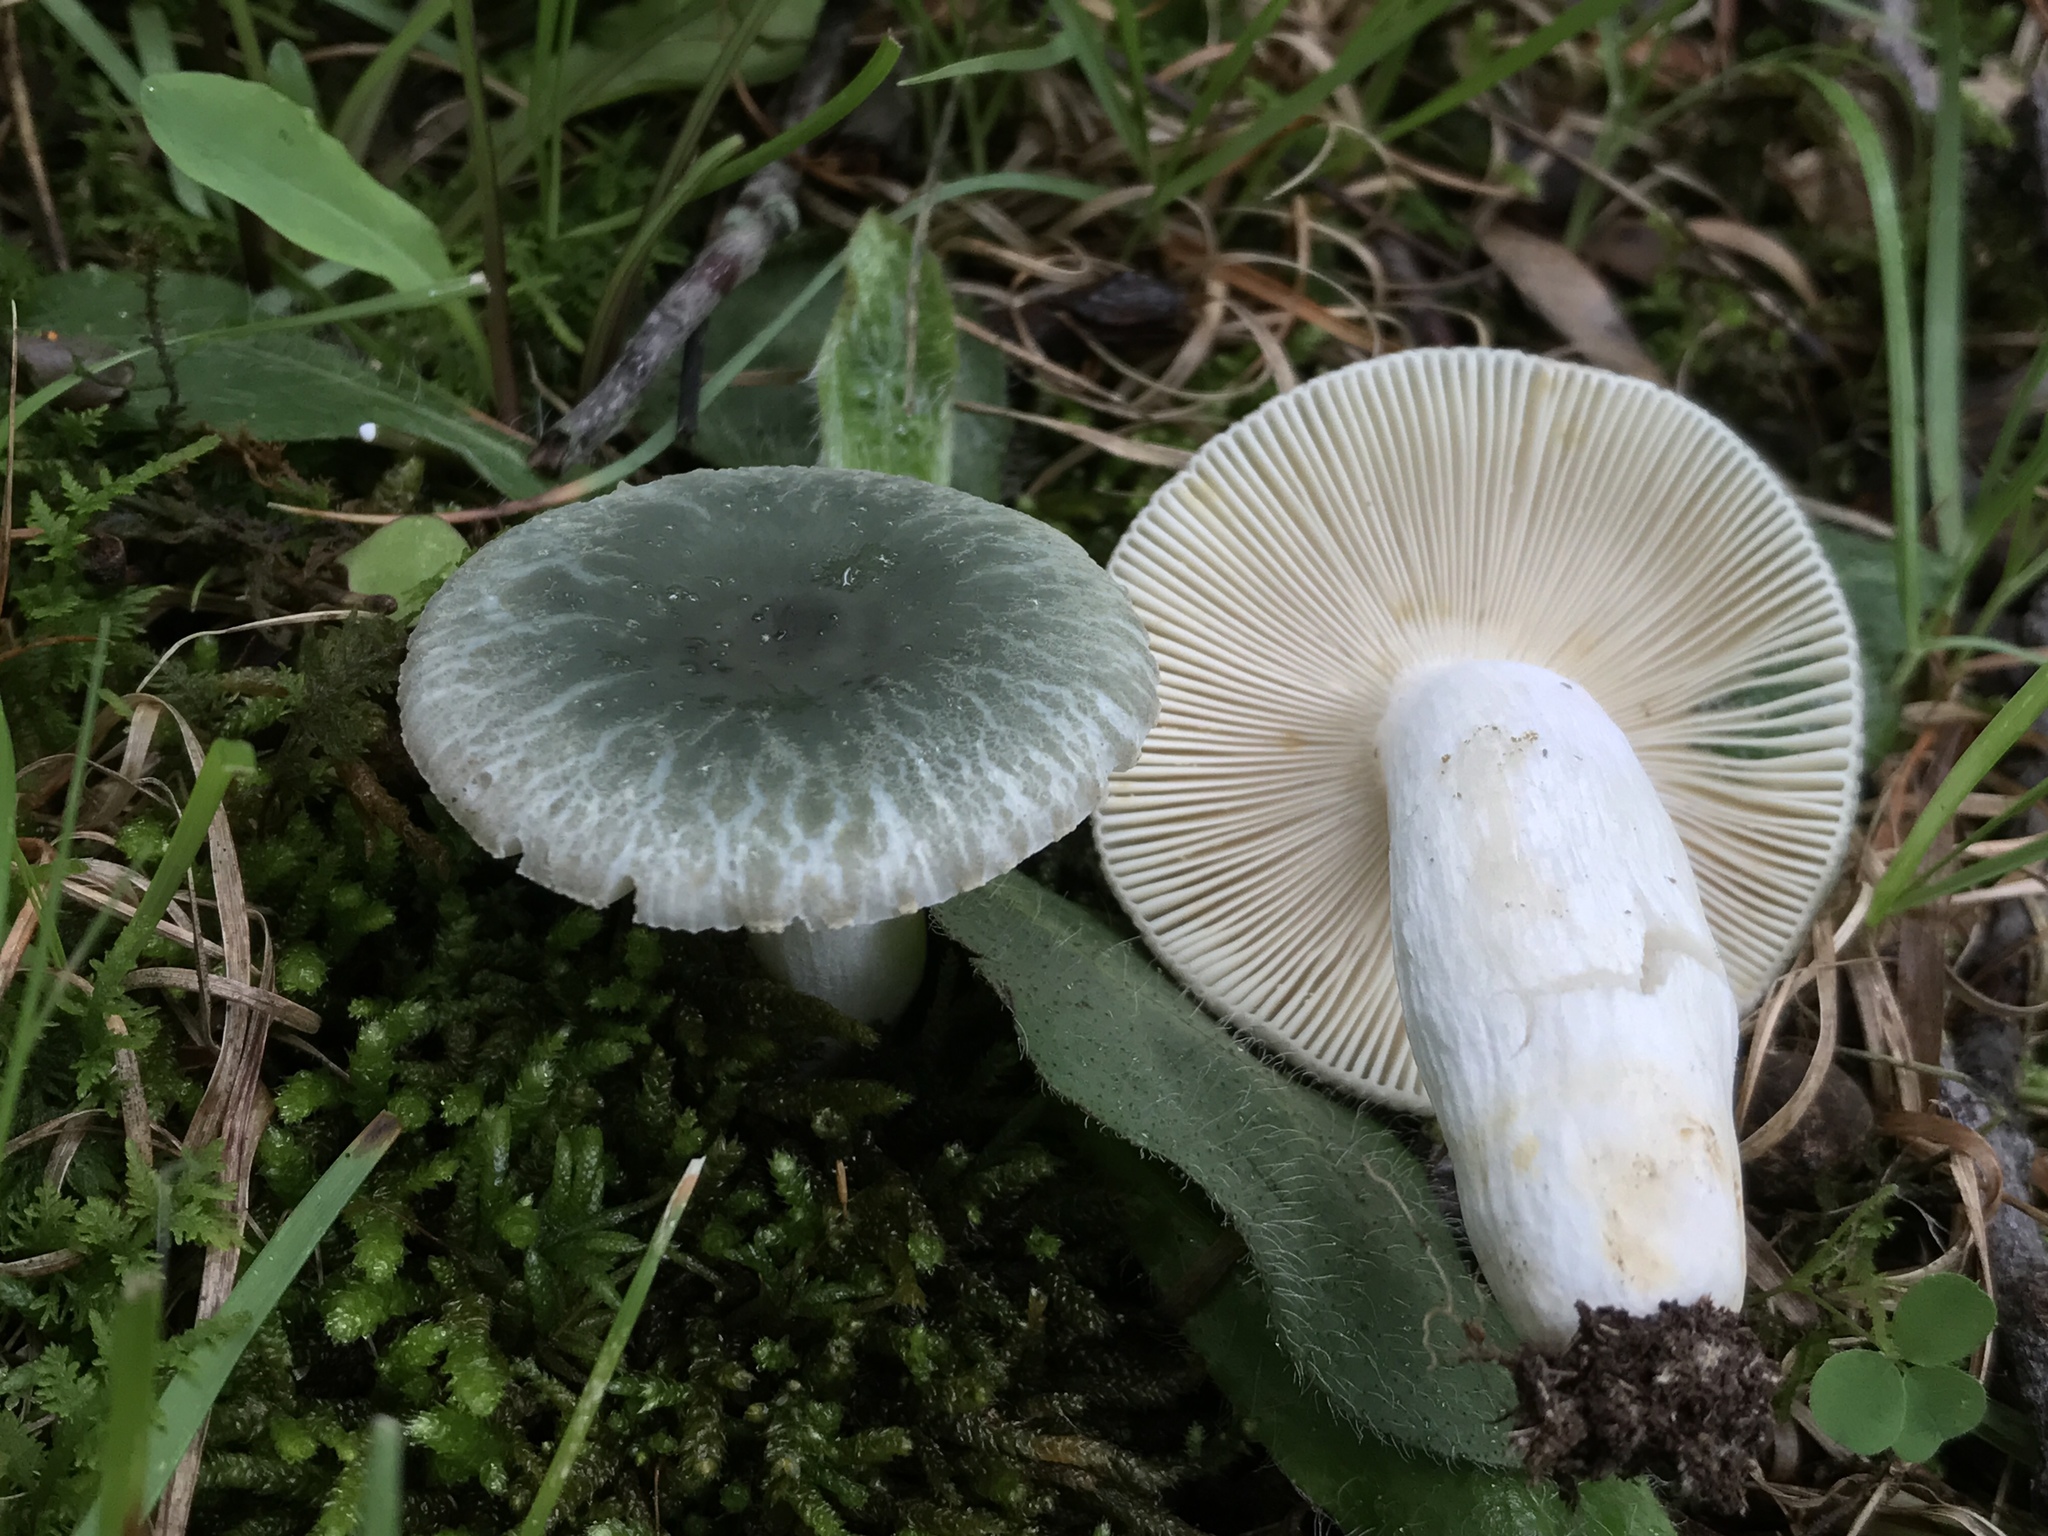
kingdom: Fungi
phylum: Basidiomycota
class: Agaricomycetes
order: Russulales
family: Russulaceae
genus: Russula
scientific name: Russula parvovirescens
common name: Blue-green cracking russula
